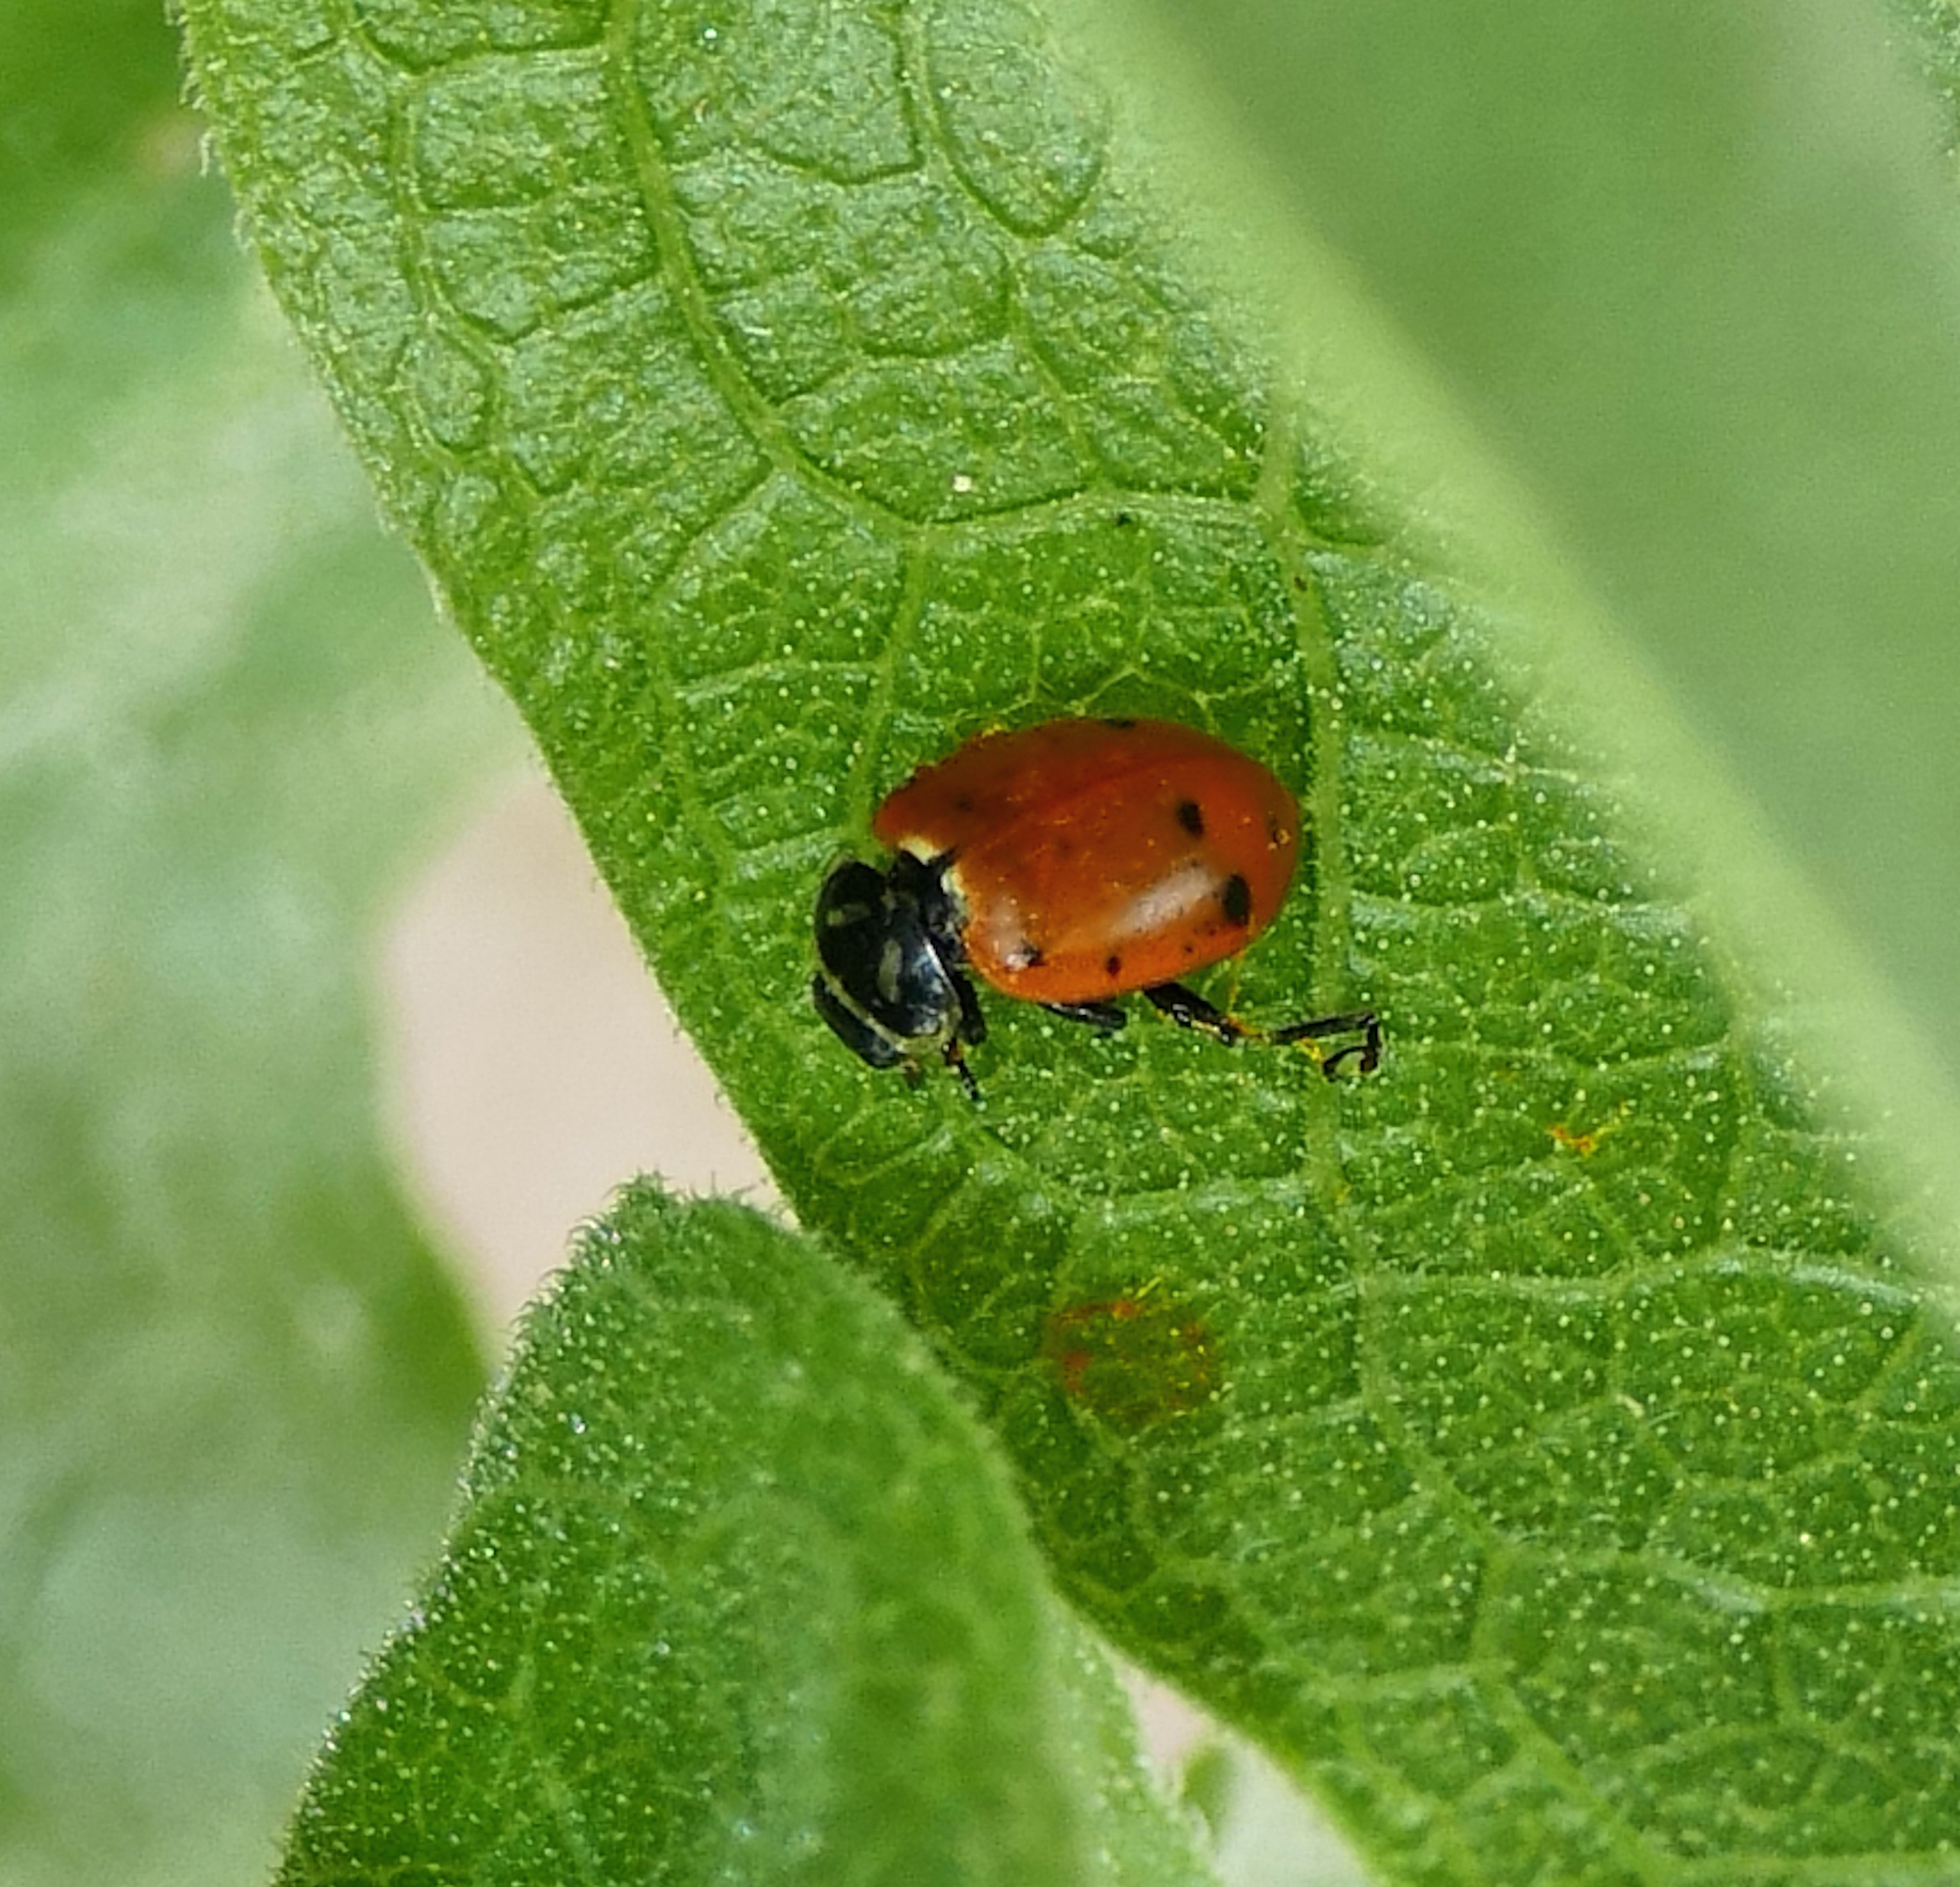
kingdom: Animalia
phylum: Arthropoda
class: Insecta
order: Coleoptera
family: Coccinellidae
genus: Hippodamia
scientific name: Hippodamia convergens
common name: Convergent lady beetle
